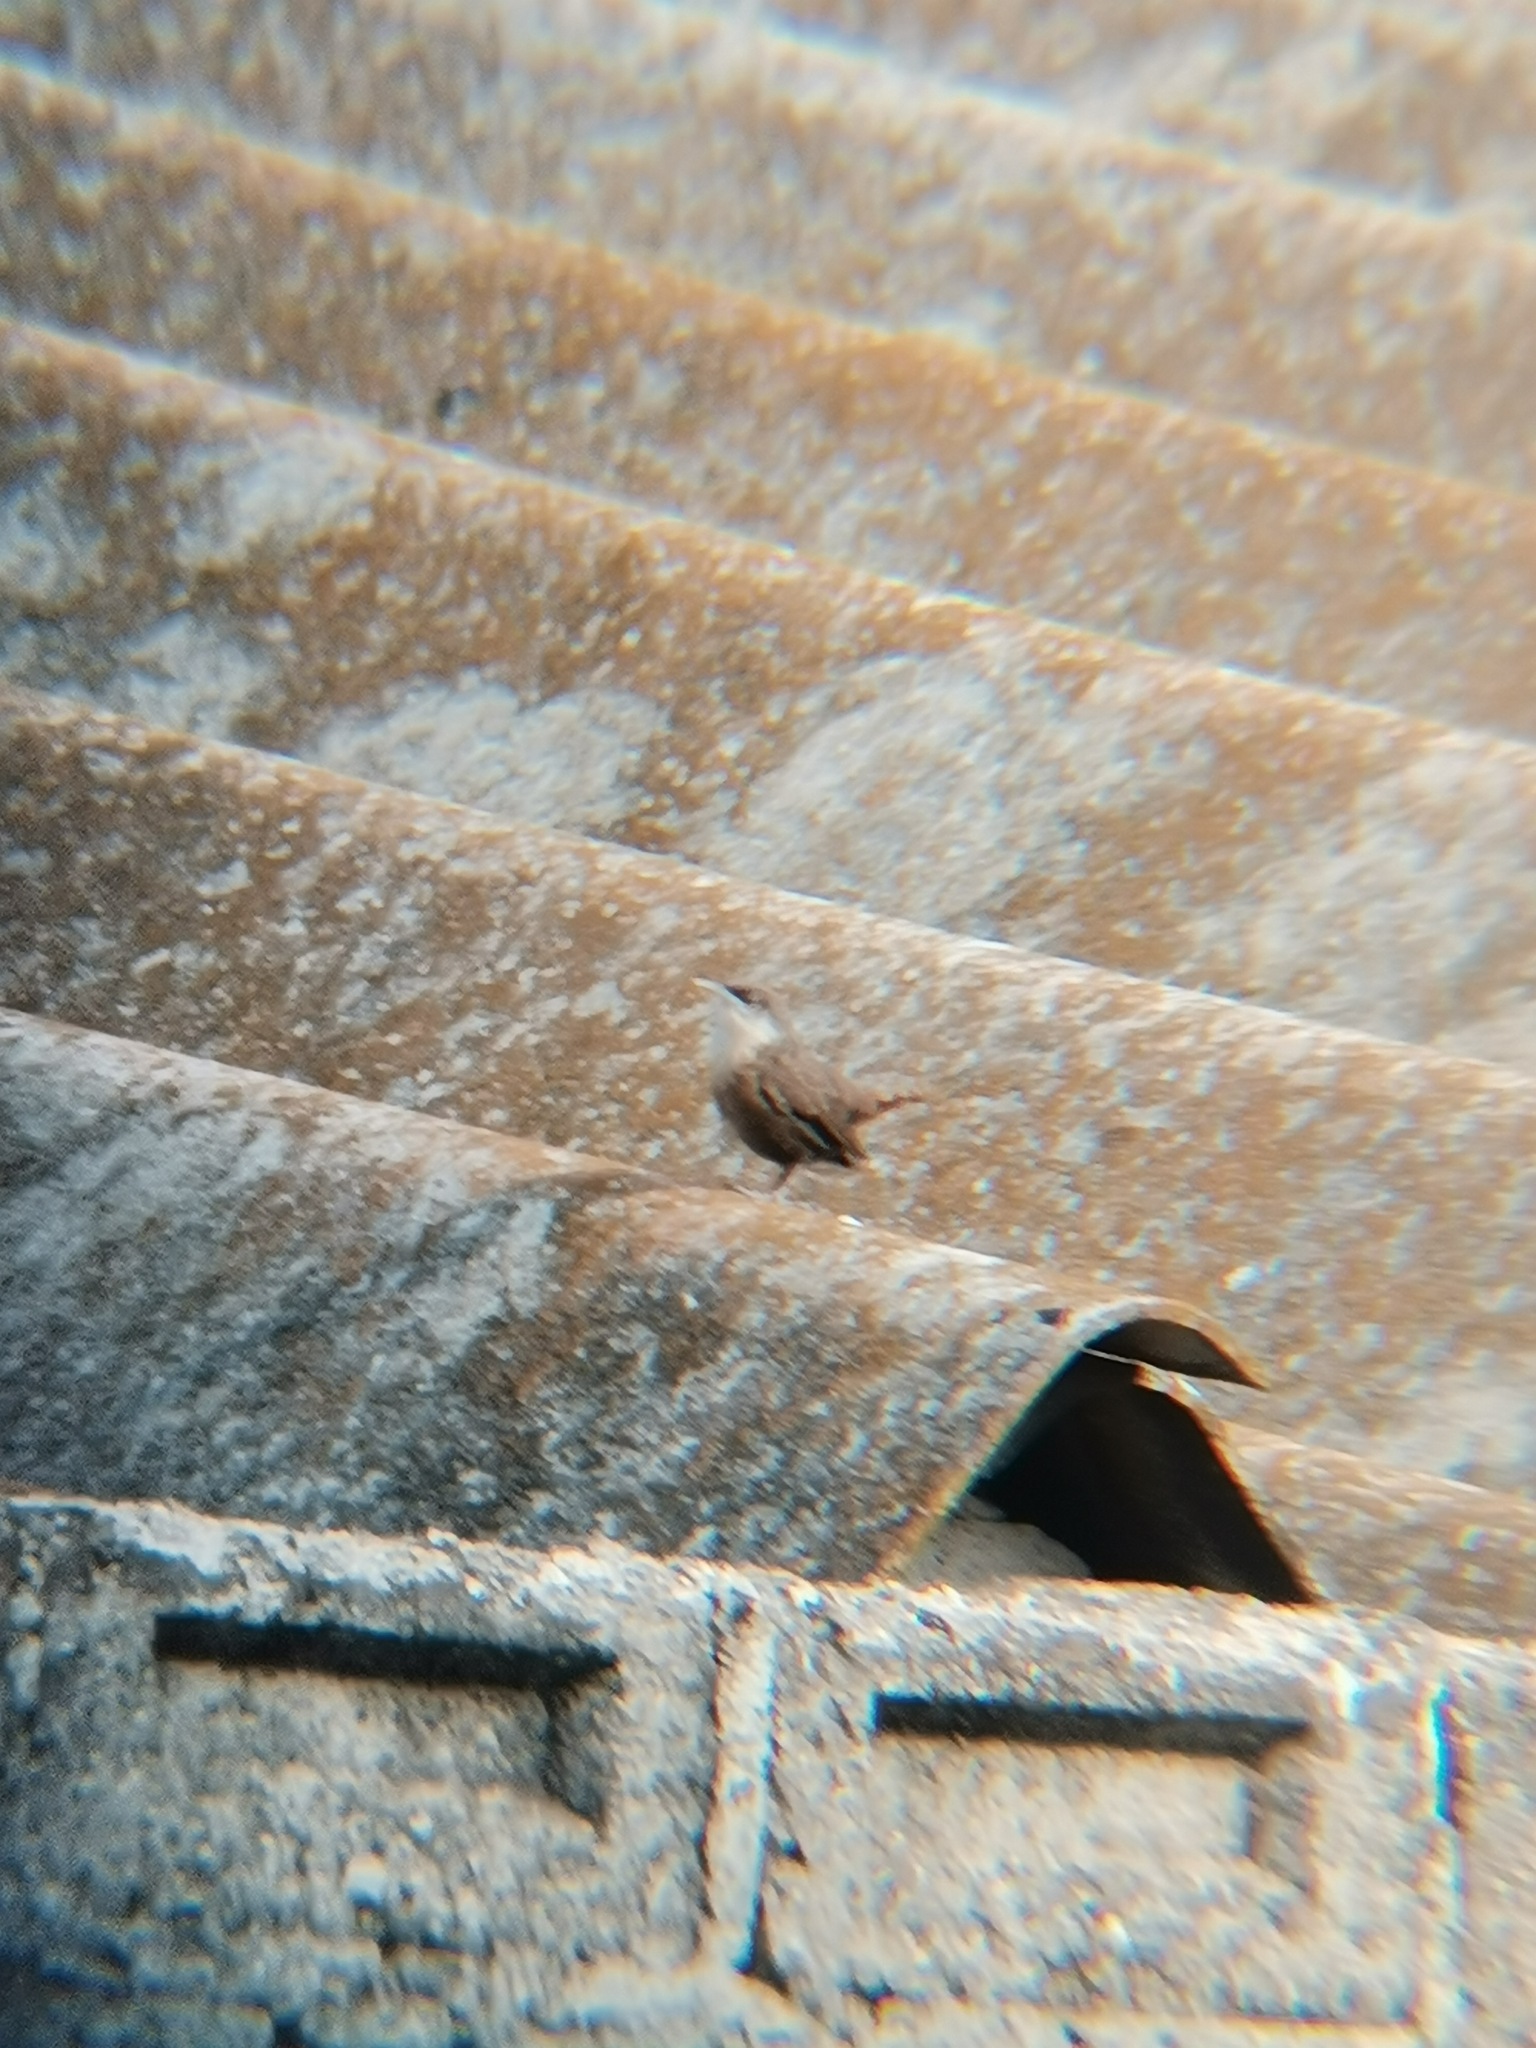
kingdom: Animalia
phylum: Chordata
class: Aves
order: Passeriformes
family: Troglodytidae
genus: Catherpes
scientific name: Catherpes mexicanus
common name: Canyon wren
